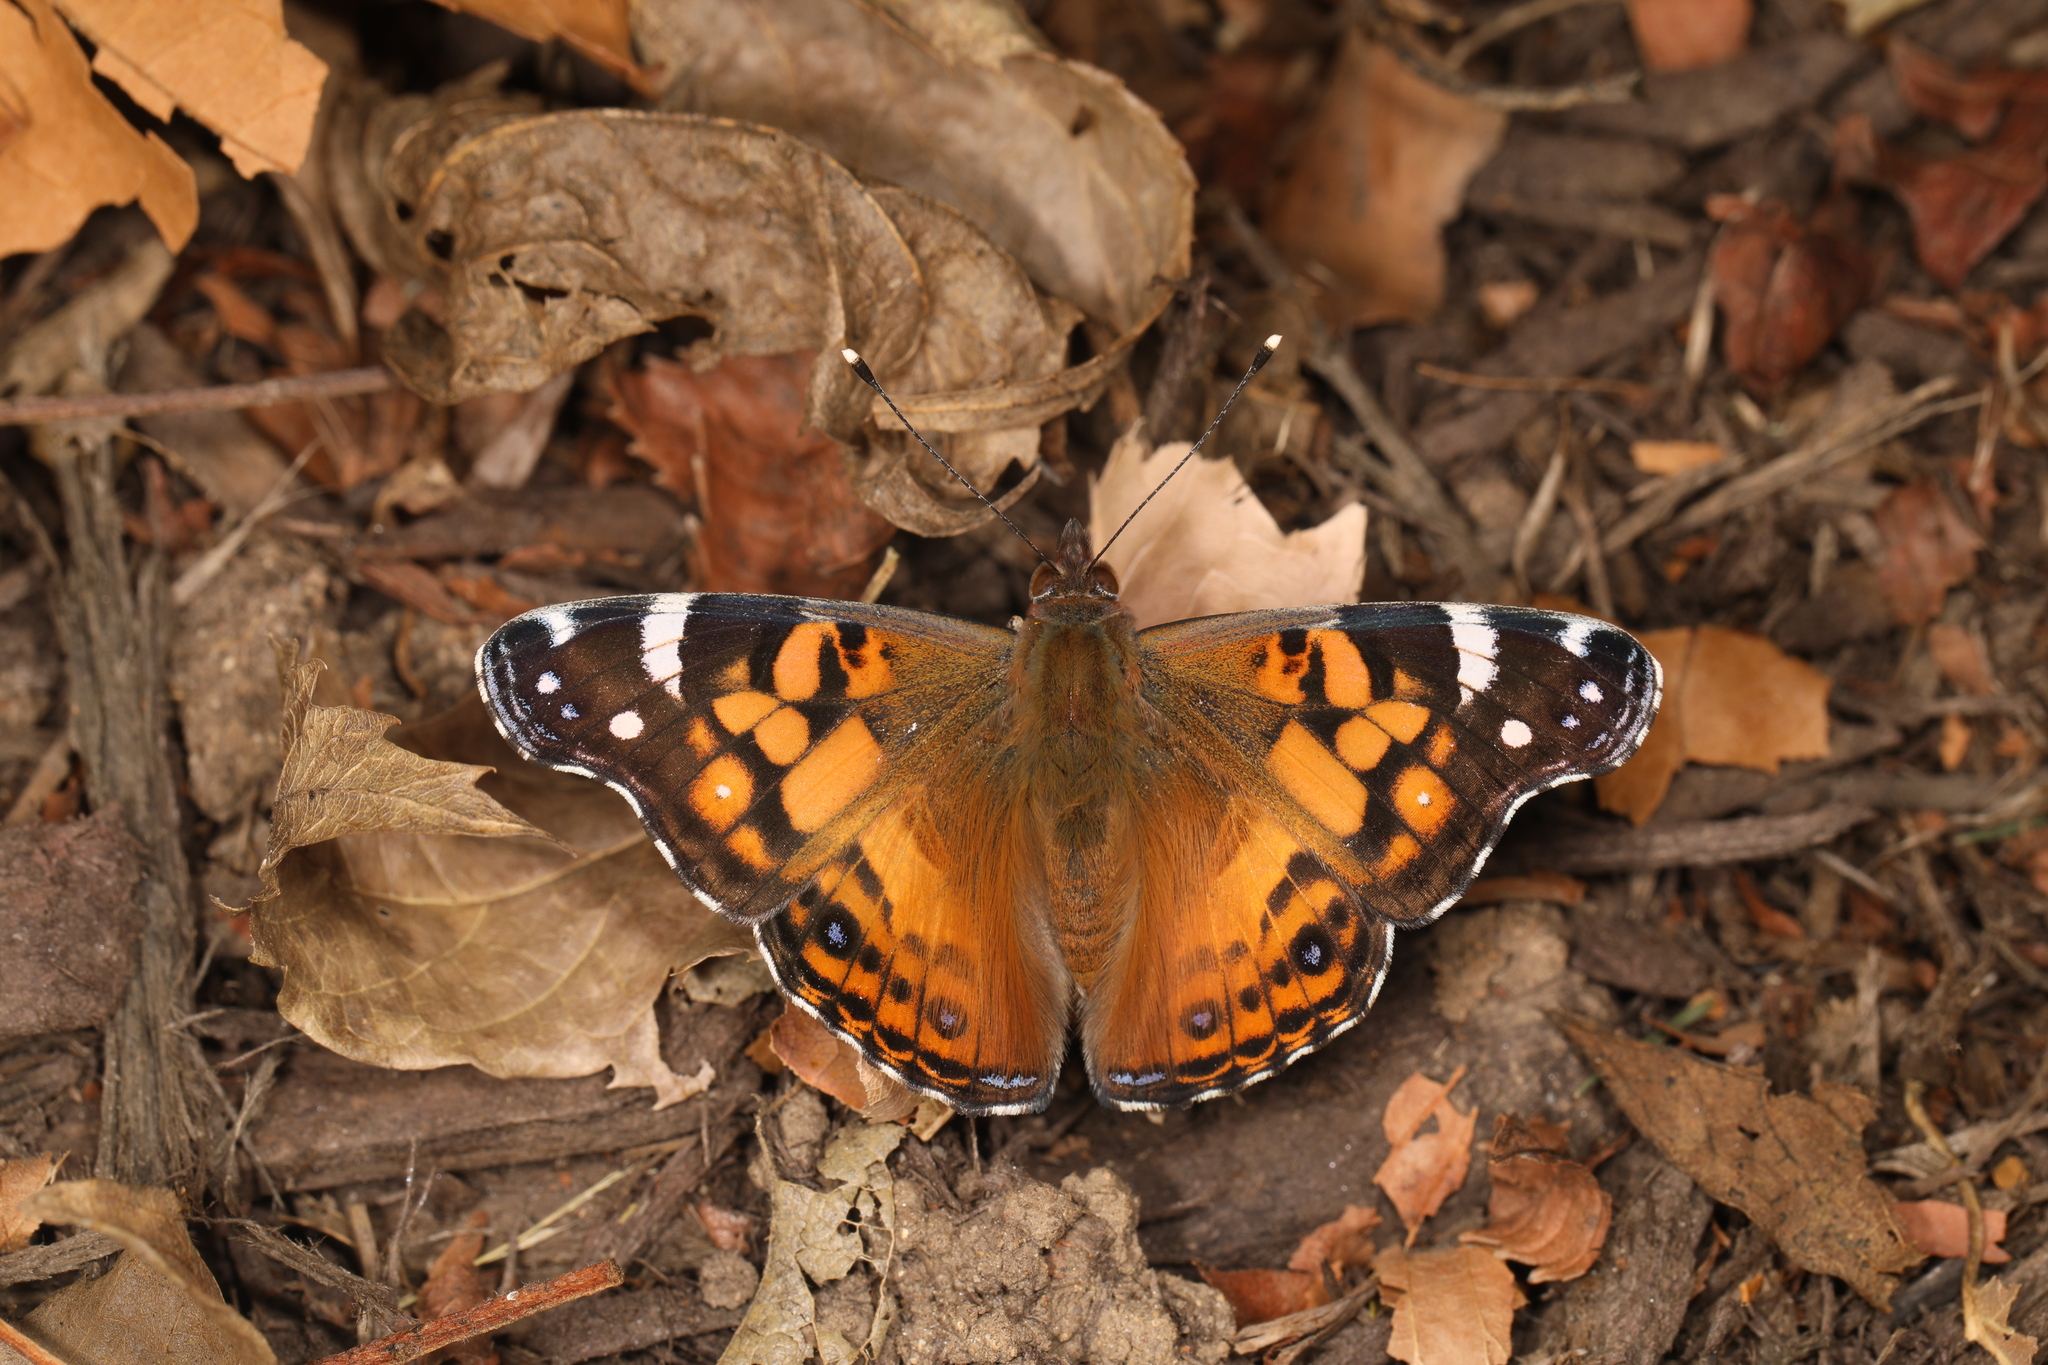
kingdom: Animalia
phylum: Arthropoda
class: Insecta
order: Lepidoptera
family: Nymphalidae
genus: Vanessa
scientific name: Vanessa virginiensis
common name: American lady
